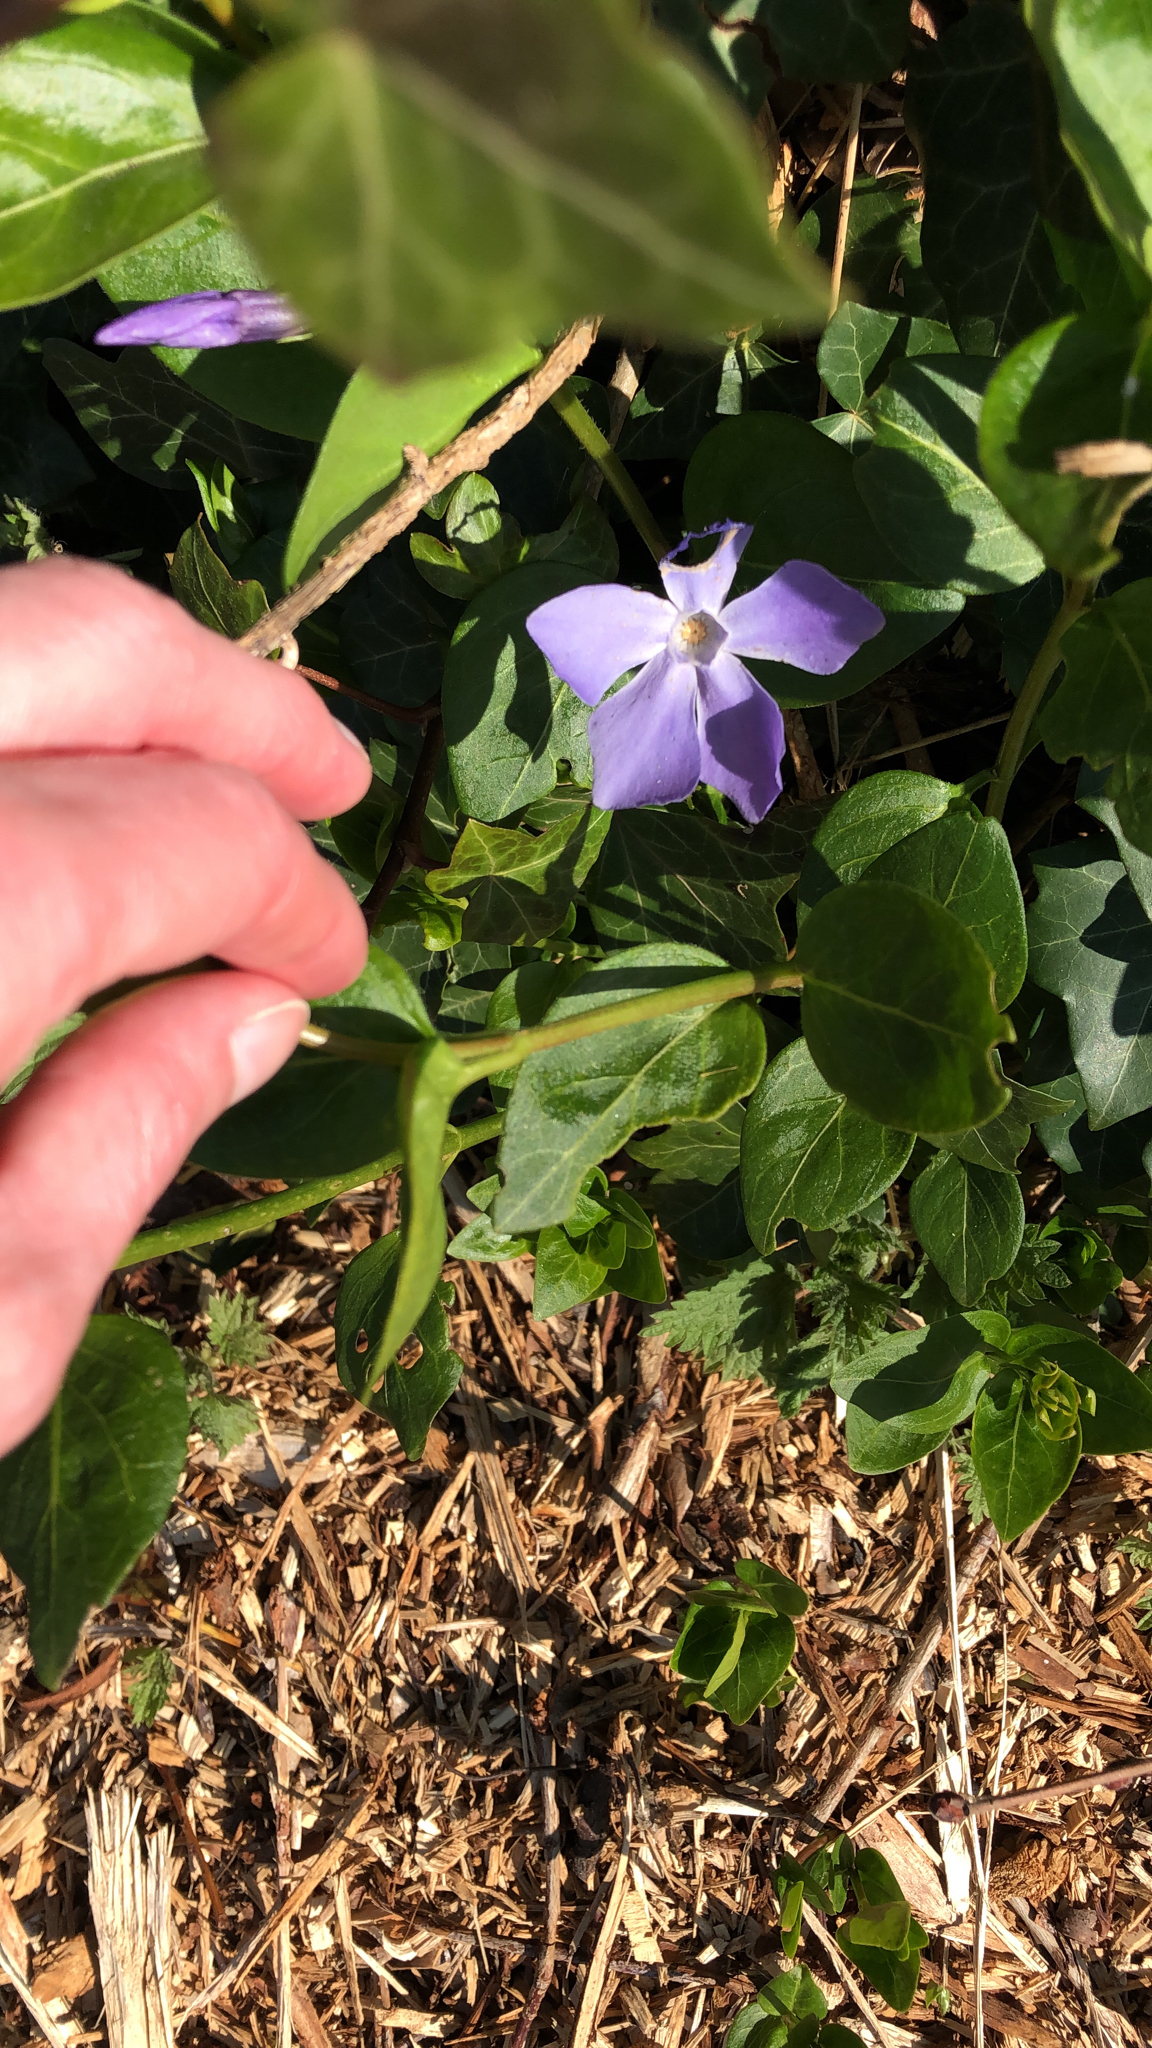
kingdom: Plantae
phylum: Tracheophyta
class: Magnoliopsida
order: Gentianales
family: Apocynaceae
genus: Vinca
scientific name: Vinca major
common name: Greater periwinkle
